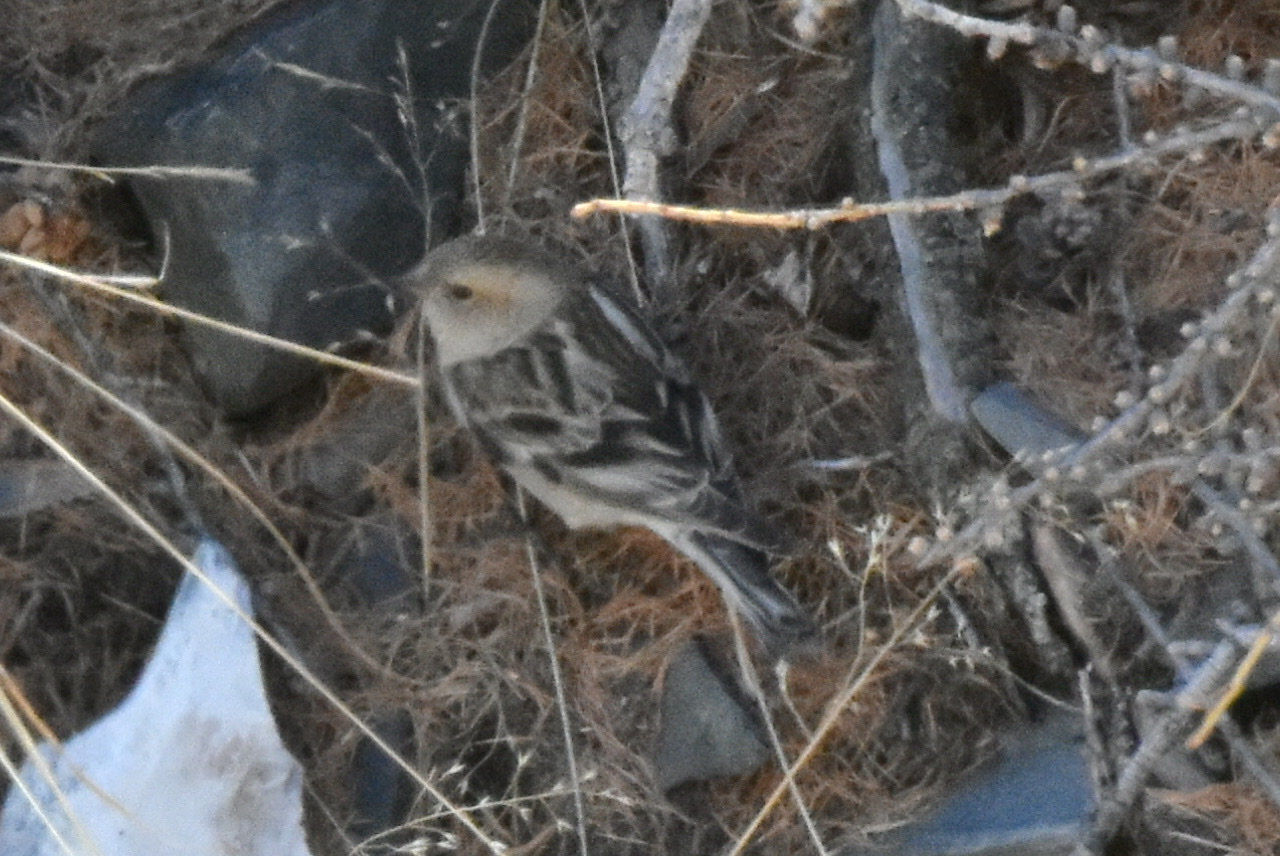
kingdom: Animalia
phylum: Chordata
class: Aves
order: Passeriformes
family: Fringillidae
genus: Leucosticte
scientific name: Leucosticte nemoricola
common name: Plain mountain finch
